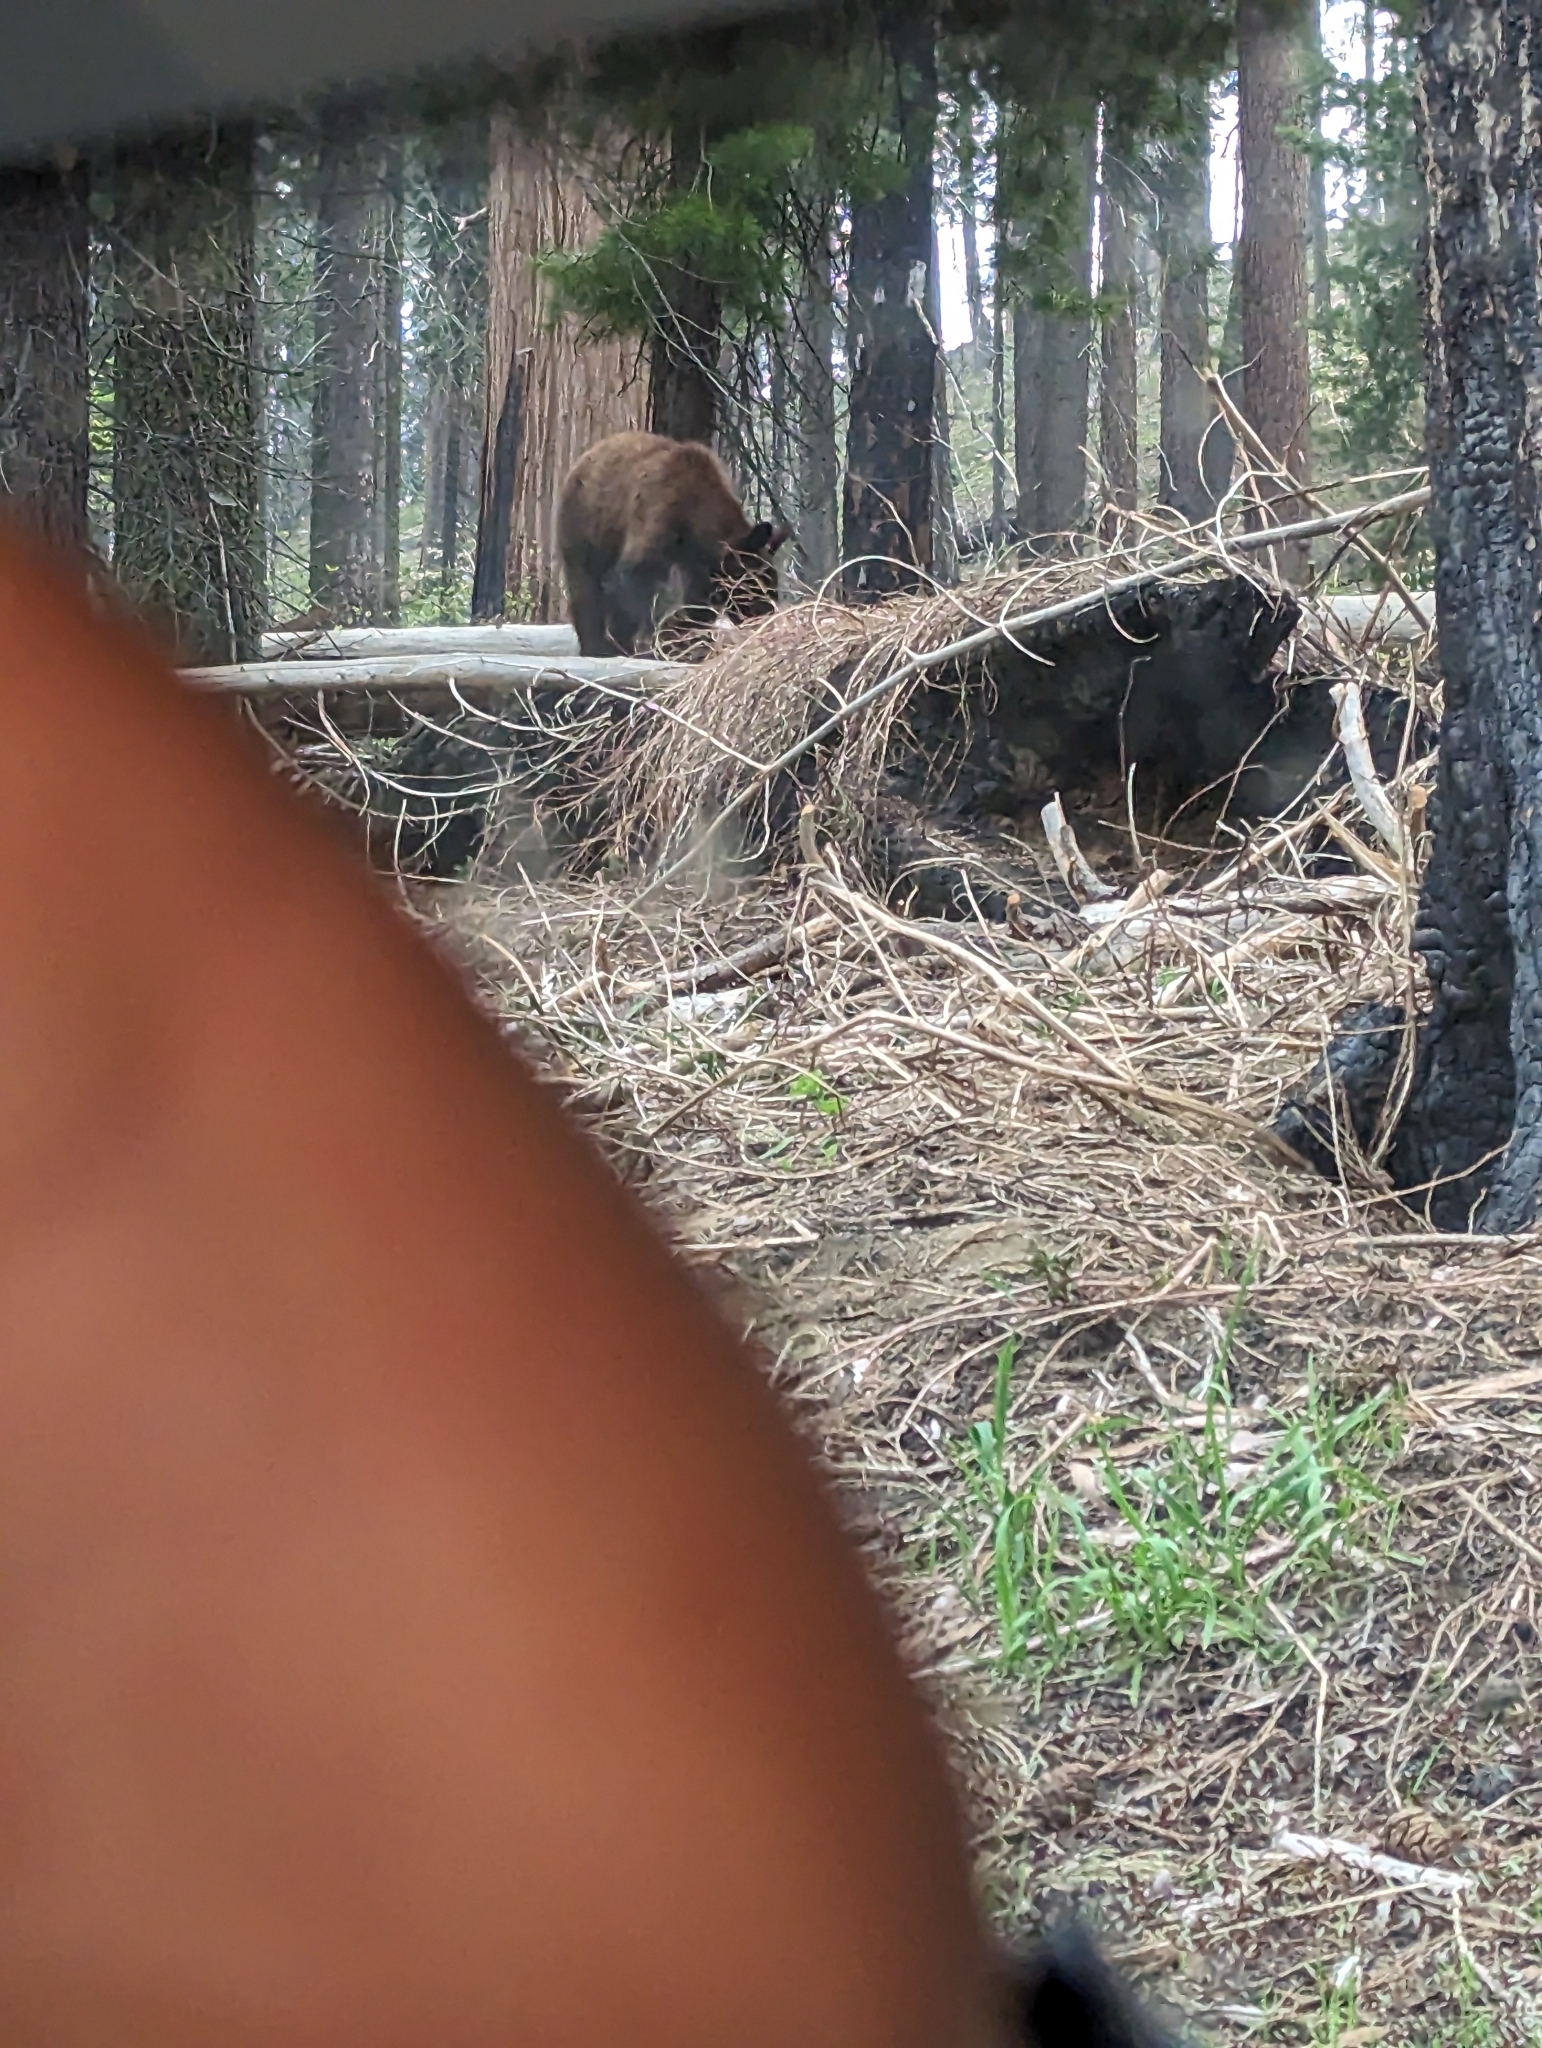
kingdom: Animalia
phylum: Chordata
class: Mammalia
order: Carnivora
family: Ursidae
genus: Ursus
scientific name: Ursus americanus
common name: American black bear
